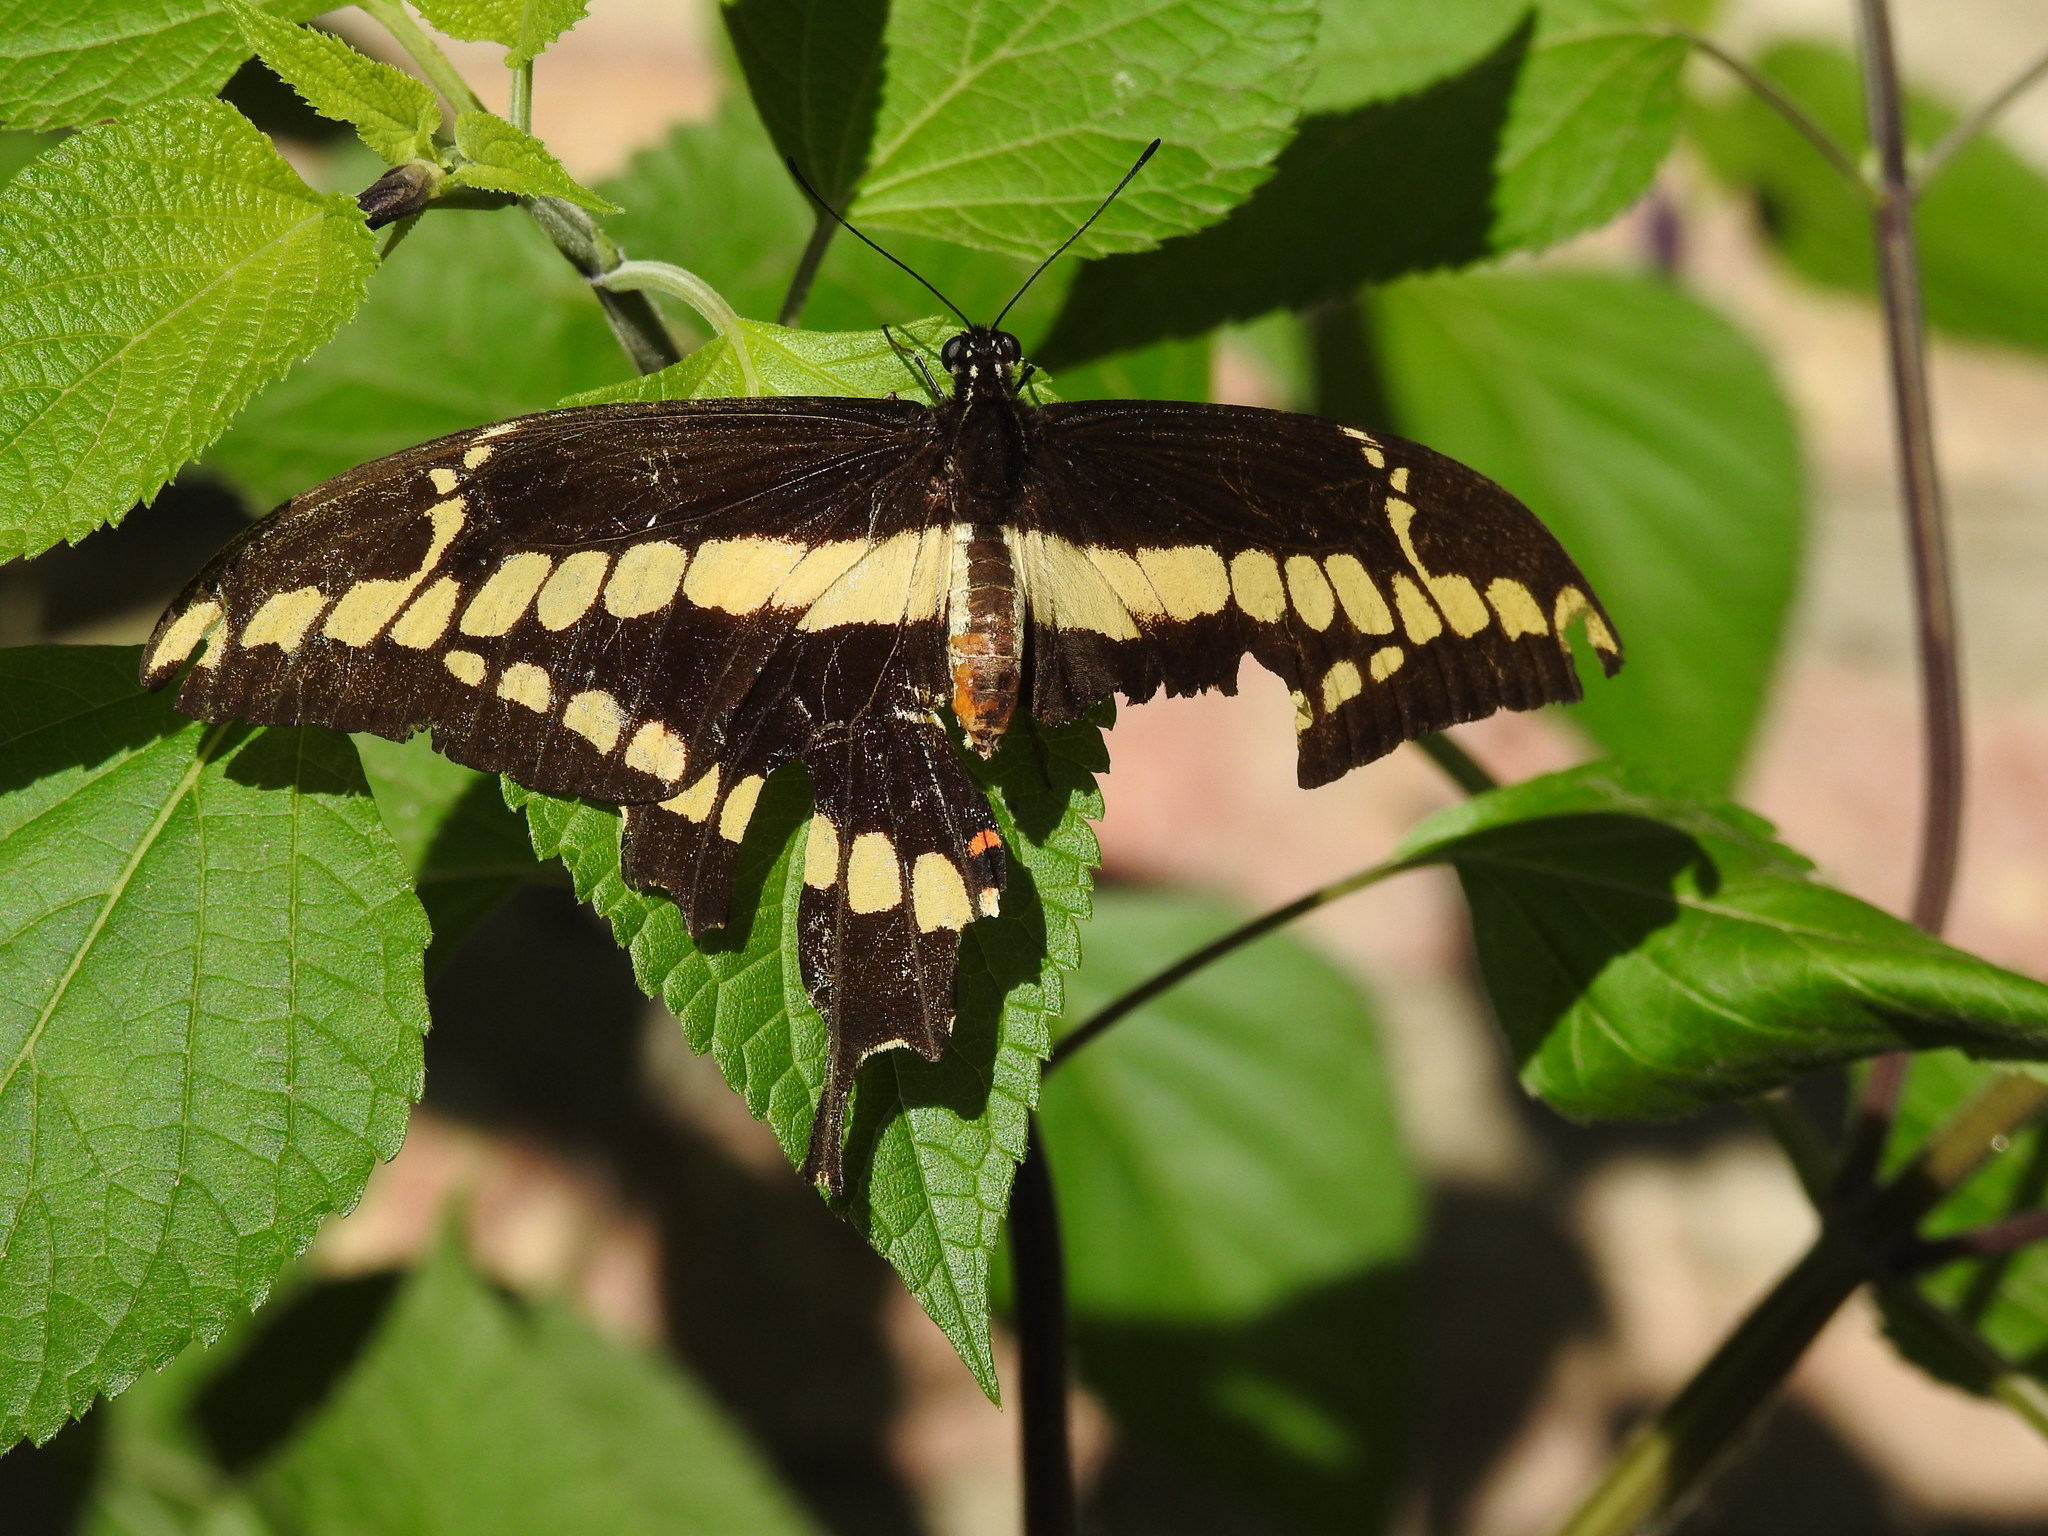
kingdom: Animalia
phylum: Arthropoda
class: Insecta
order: Lepidoptera
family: Papilionidae
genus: Papilio
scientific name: Papilio thoas
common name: King swallowtail
